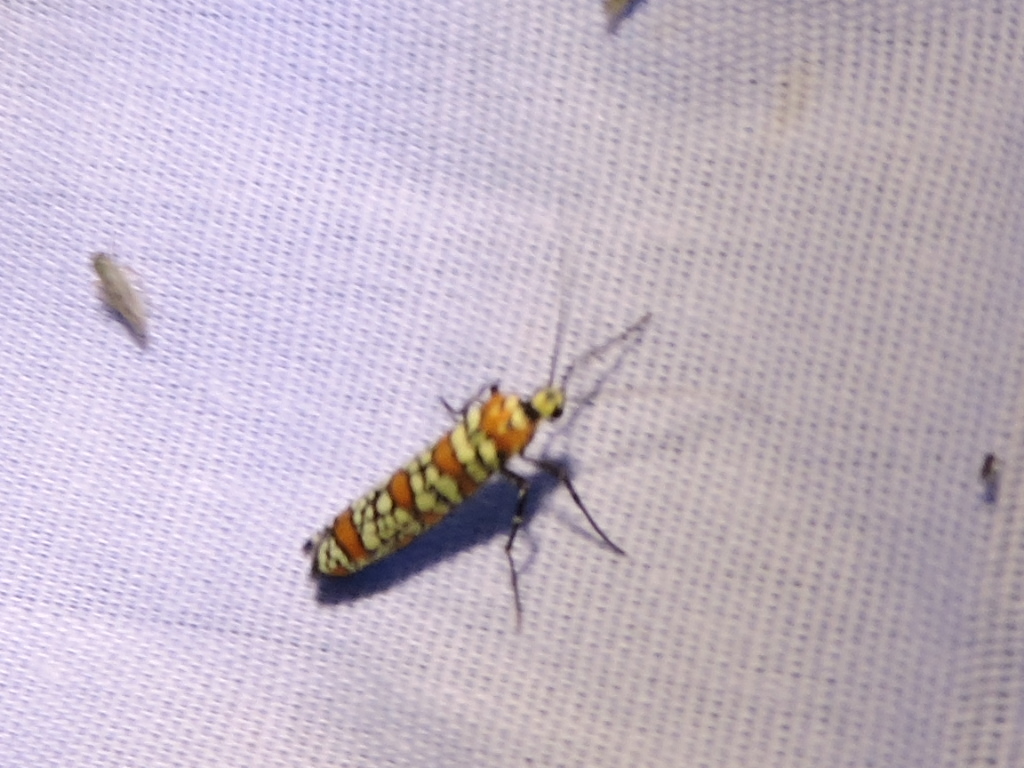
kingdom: Animalia
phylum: Arthropoda
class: Insecta
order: Lepidoptera
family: Attevidae
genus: Atteva
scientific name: Atteva punctella
